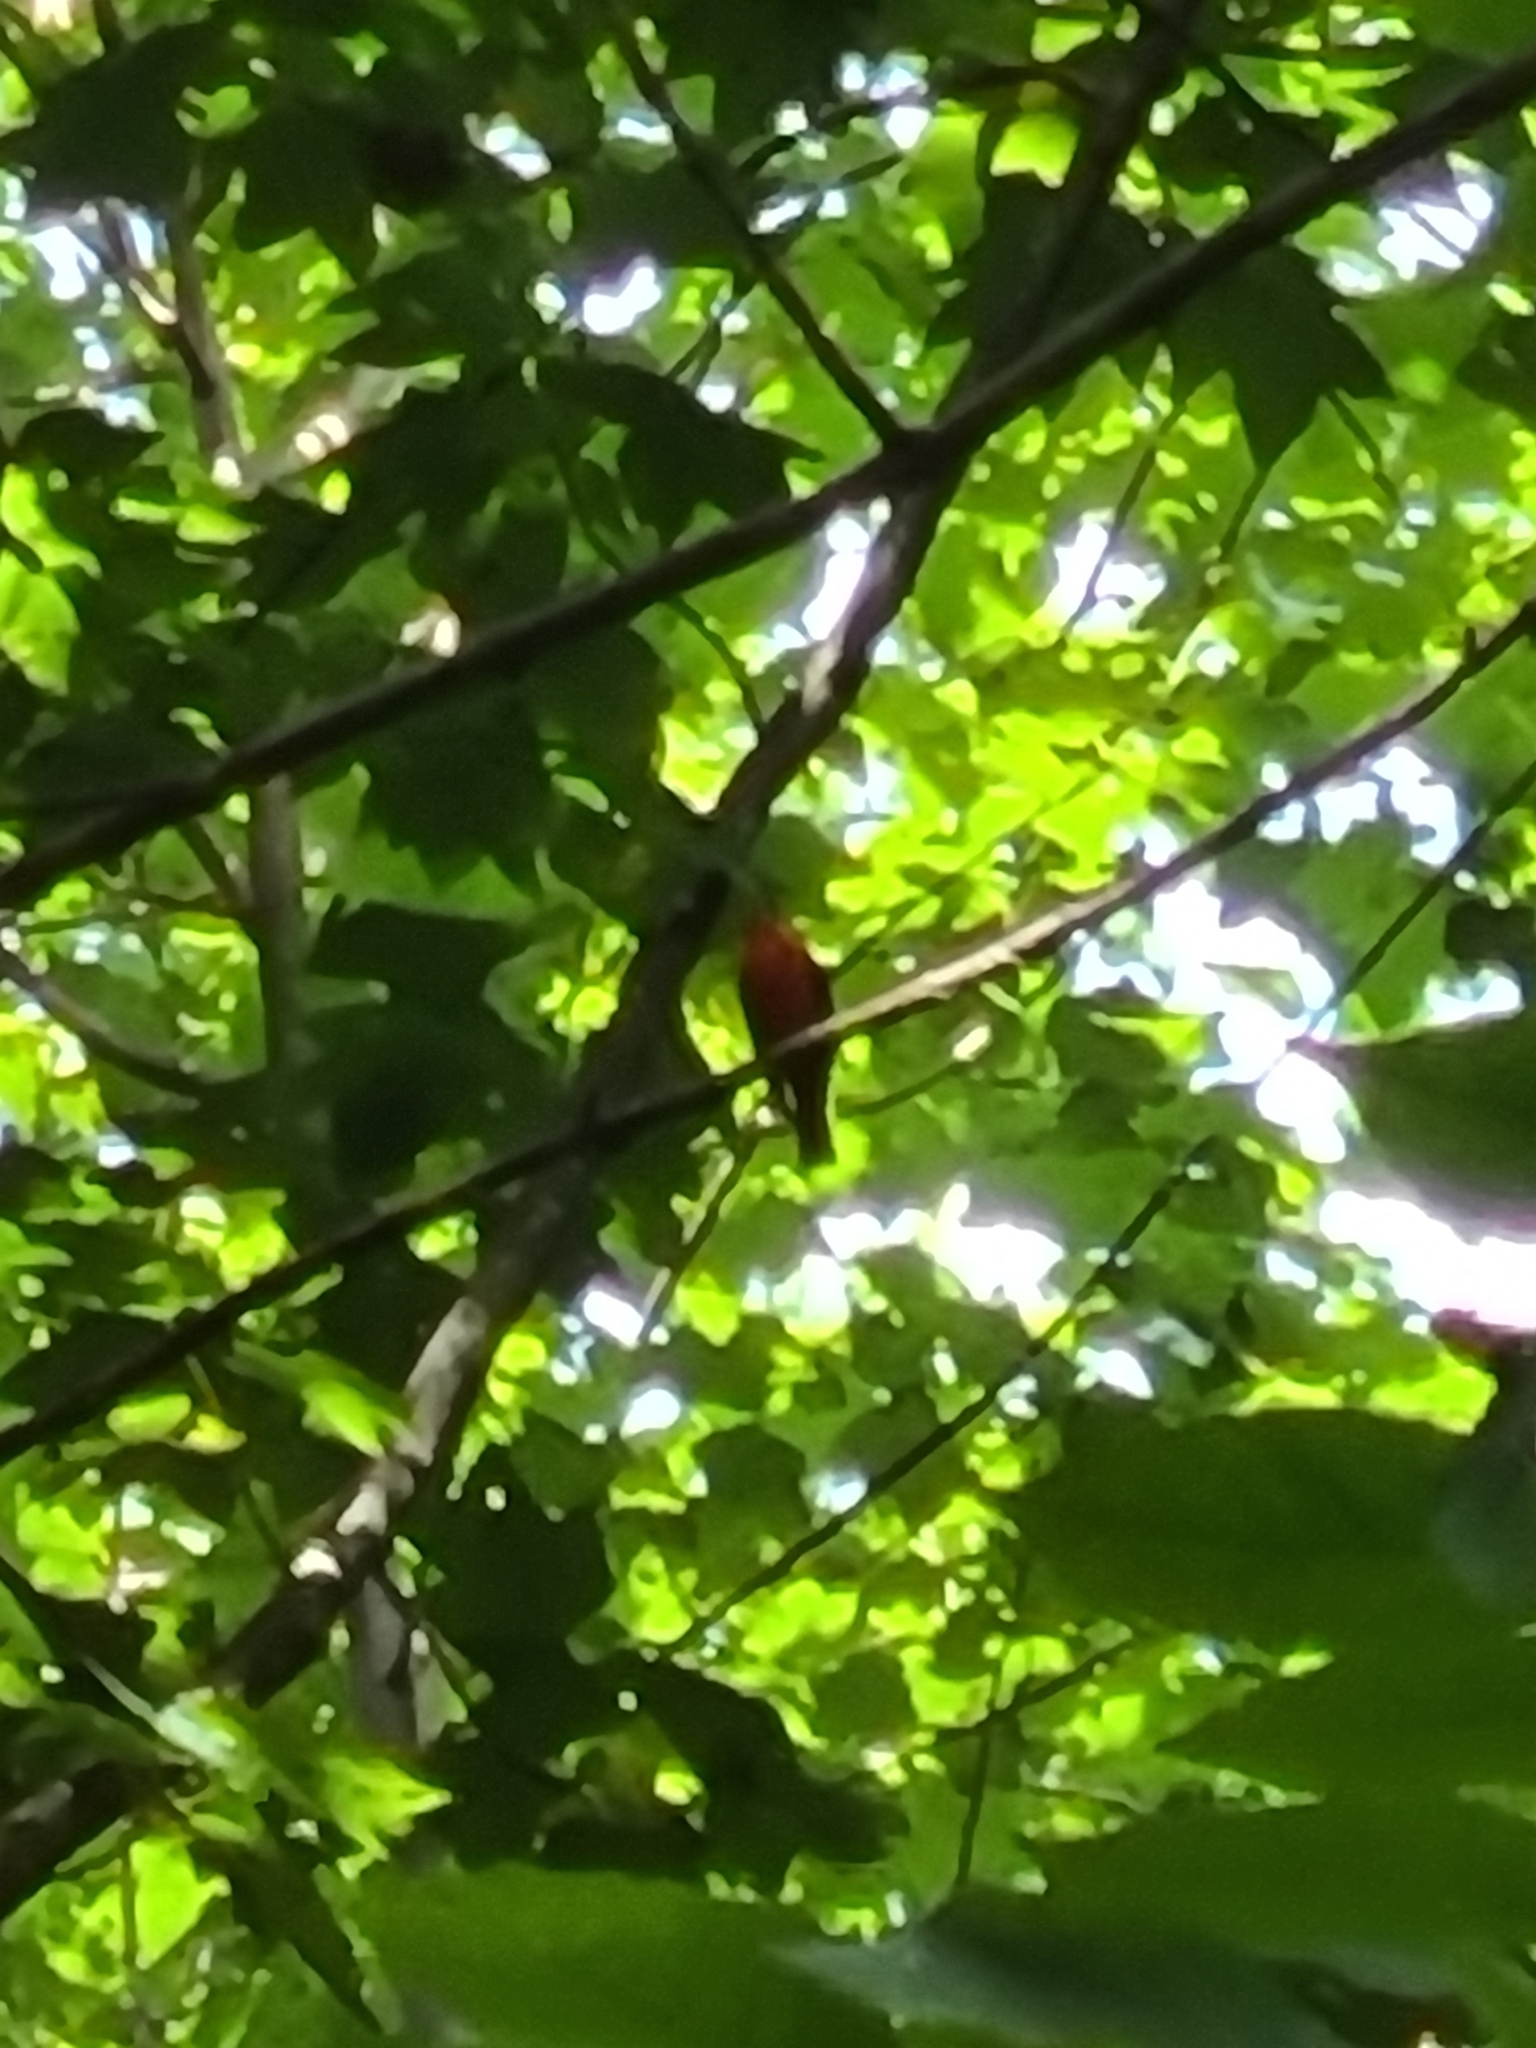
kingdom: Animalia
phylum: Chordata
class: Aves
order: Passeriformes
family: Cardinalidae
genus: Piranga
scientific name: Piranga olivacea
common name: Scarlet tanager
